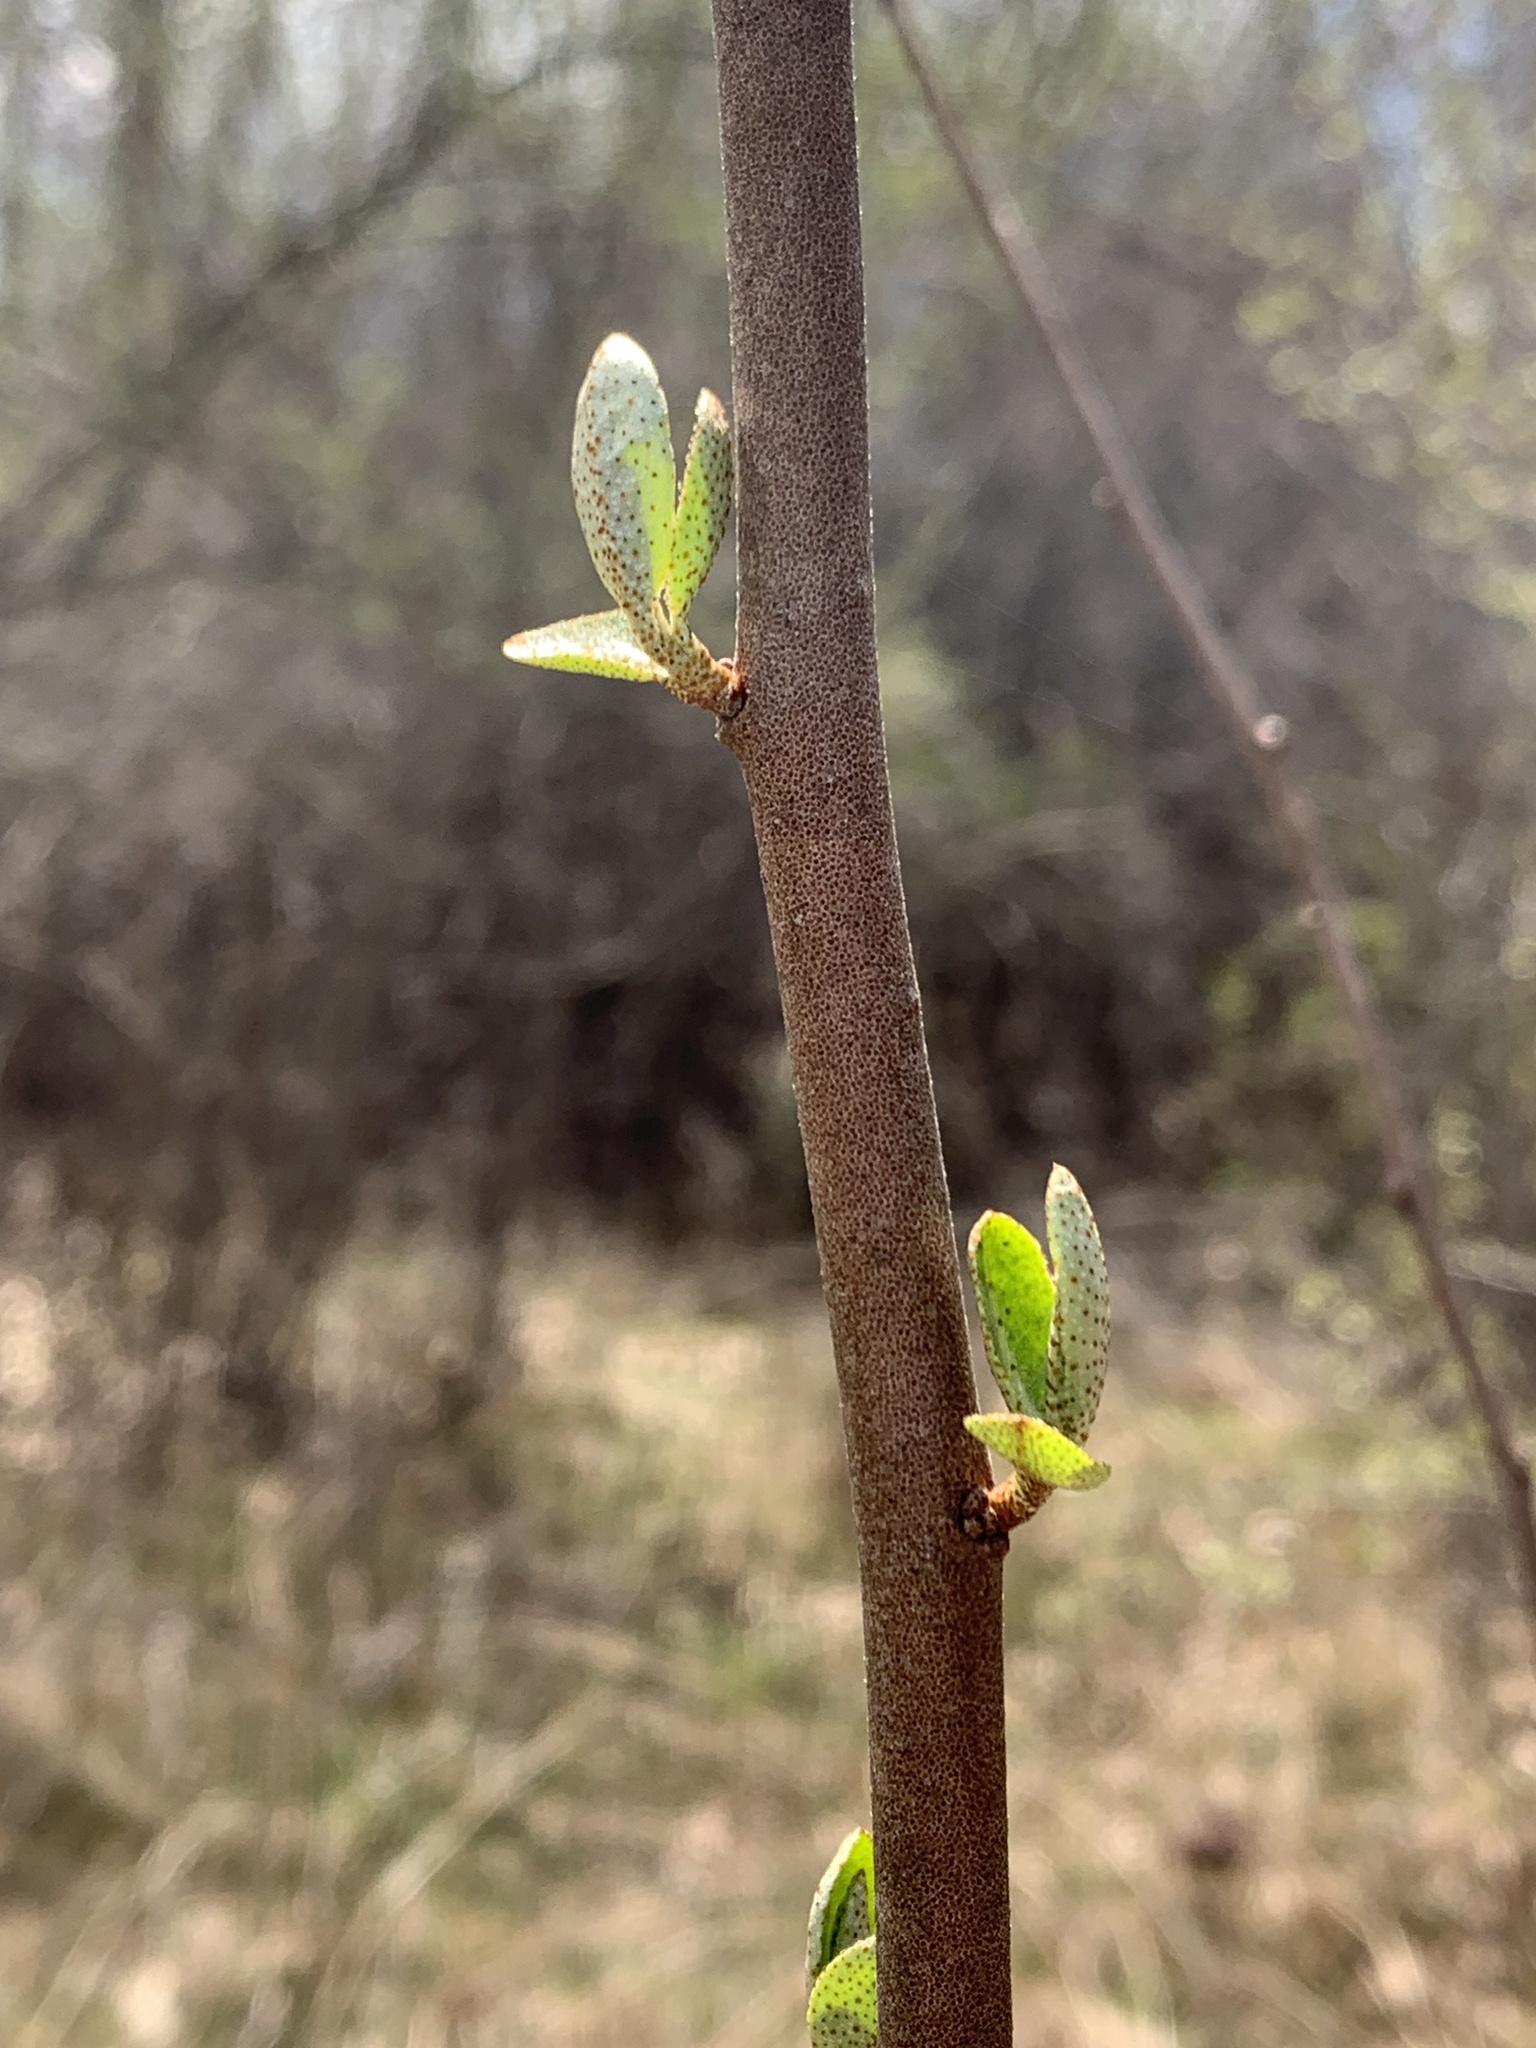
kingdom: Plantae
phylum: Tracheophyta
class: Magnoliopsida
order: Rosales
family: Elaeagnaceae
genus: Elaeagnus
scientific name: Elaeagnus umbellata
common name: Autumn olive
